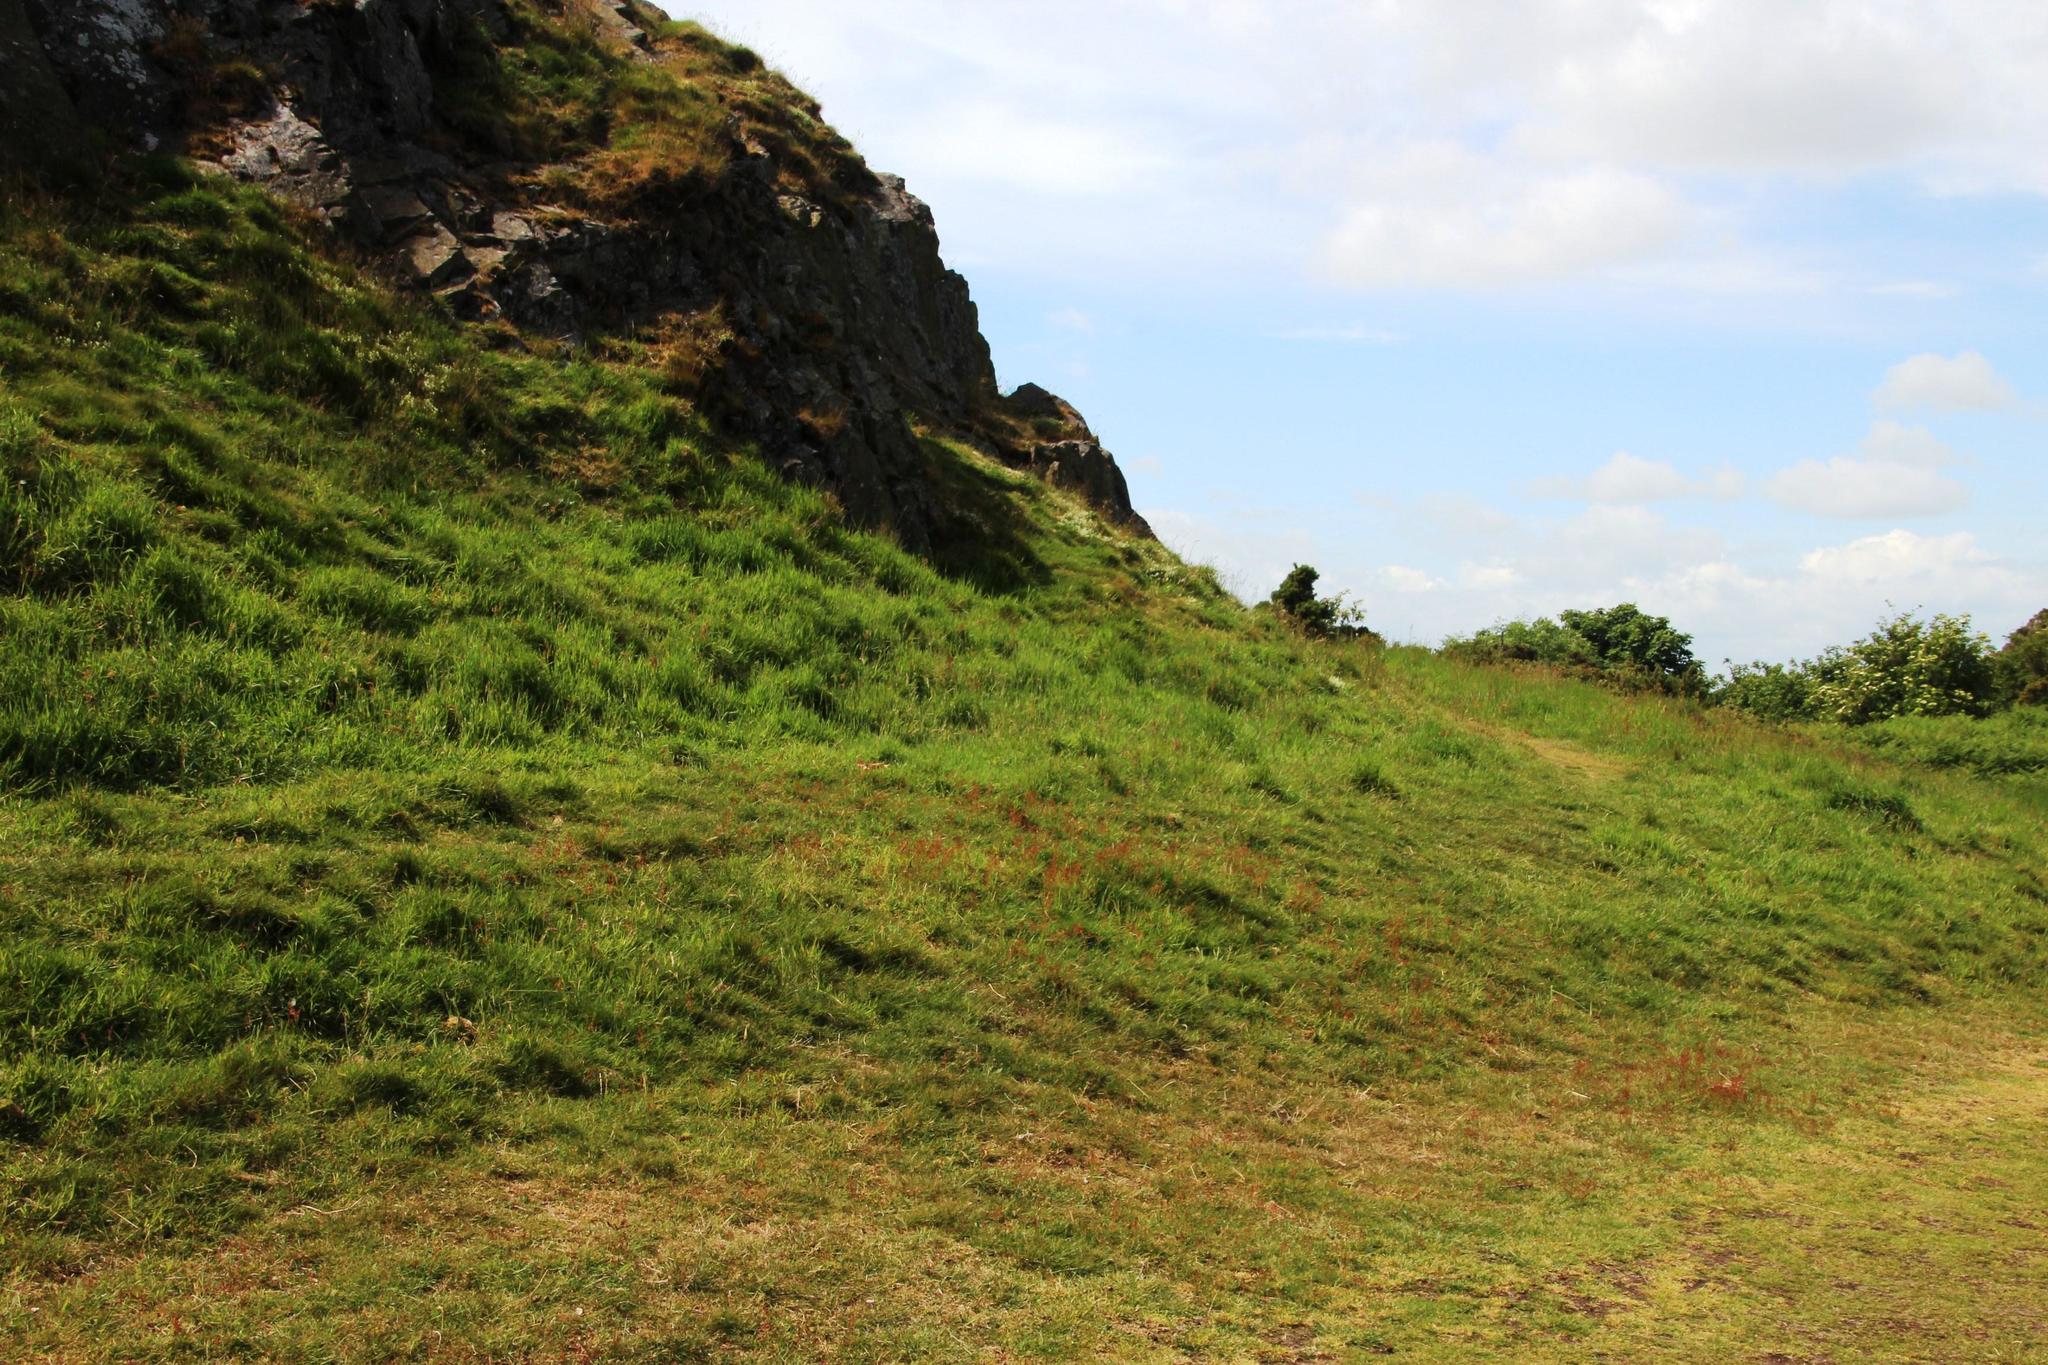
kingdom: Plantae
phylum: Tracheophyta
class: Magnoliopsida
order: Caryophyllales
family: Polygonaceae
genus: Rumex
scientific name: Rumex acetosella
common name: Common sheep sorrel
